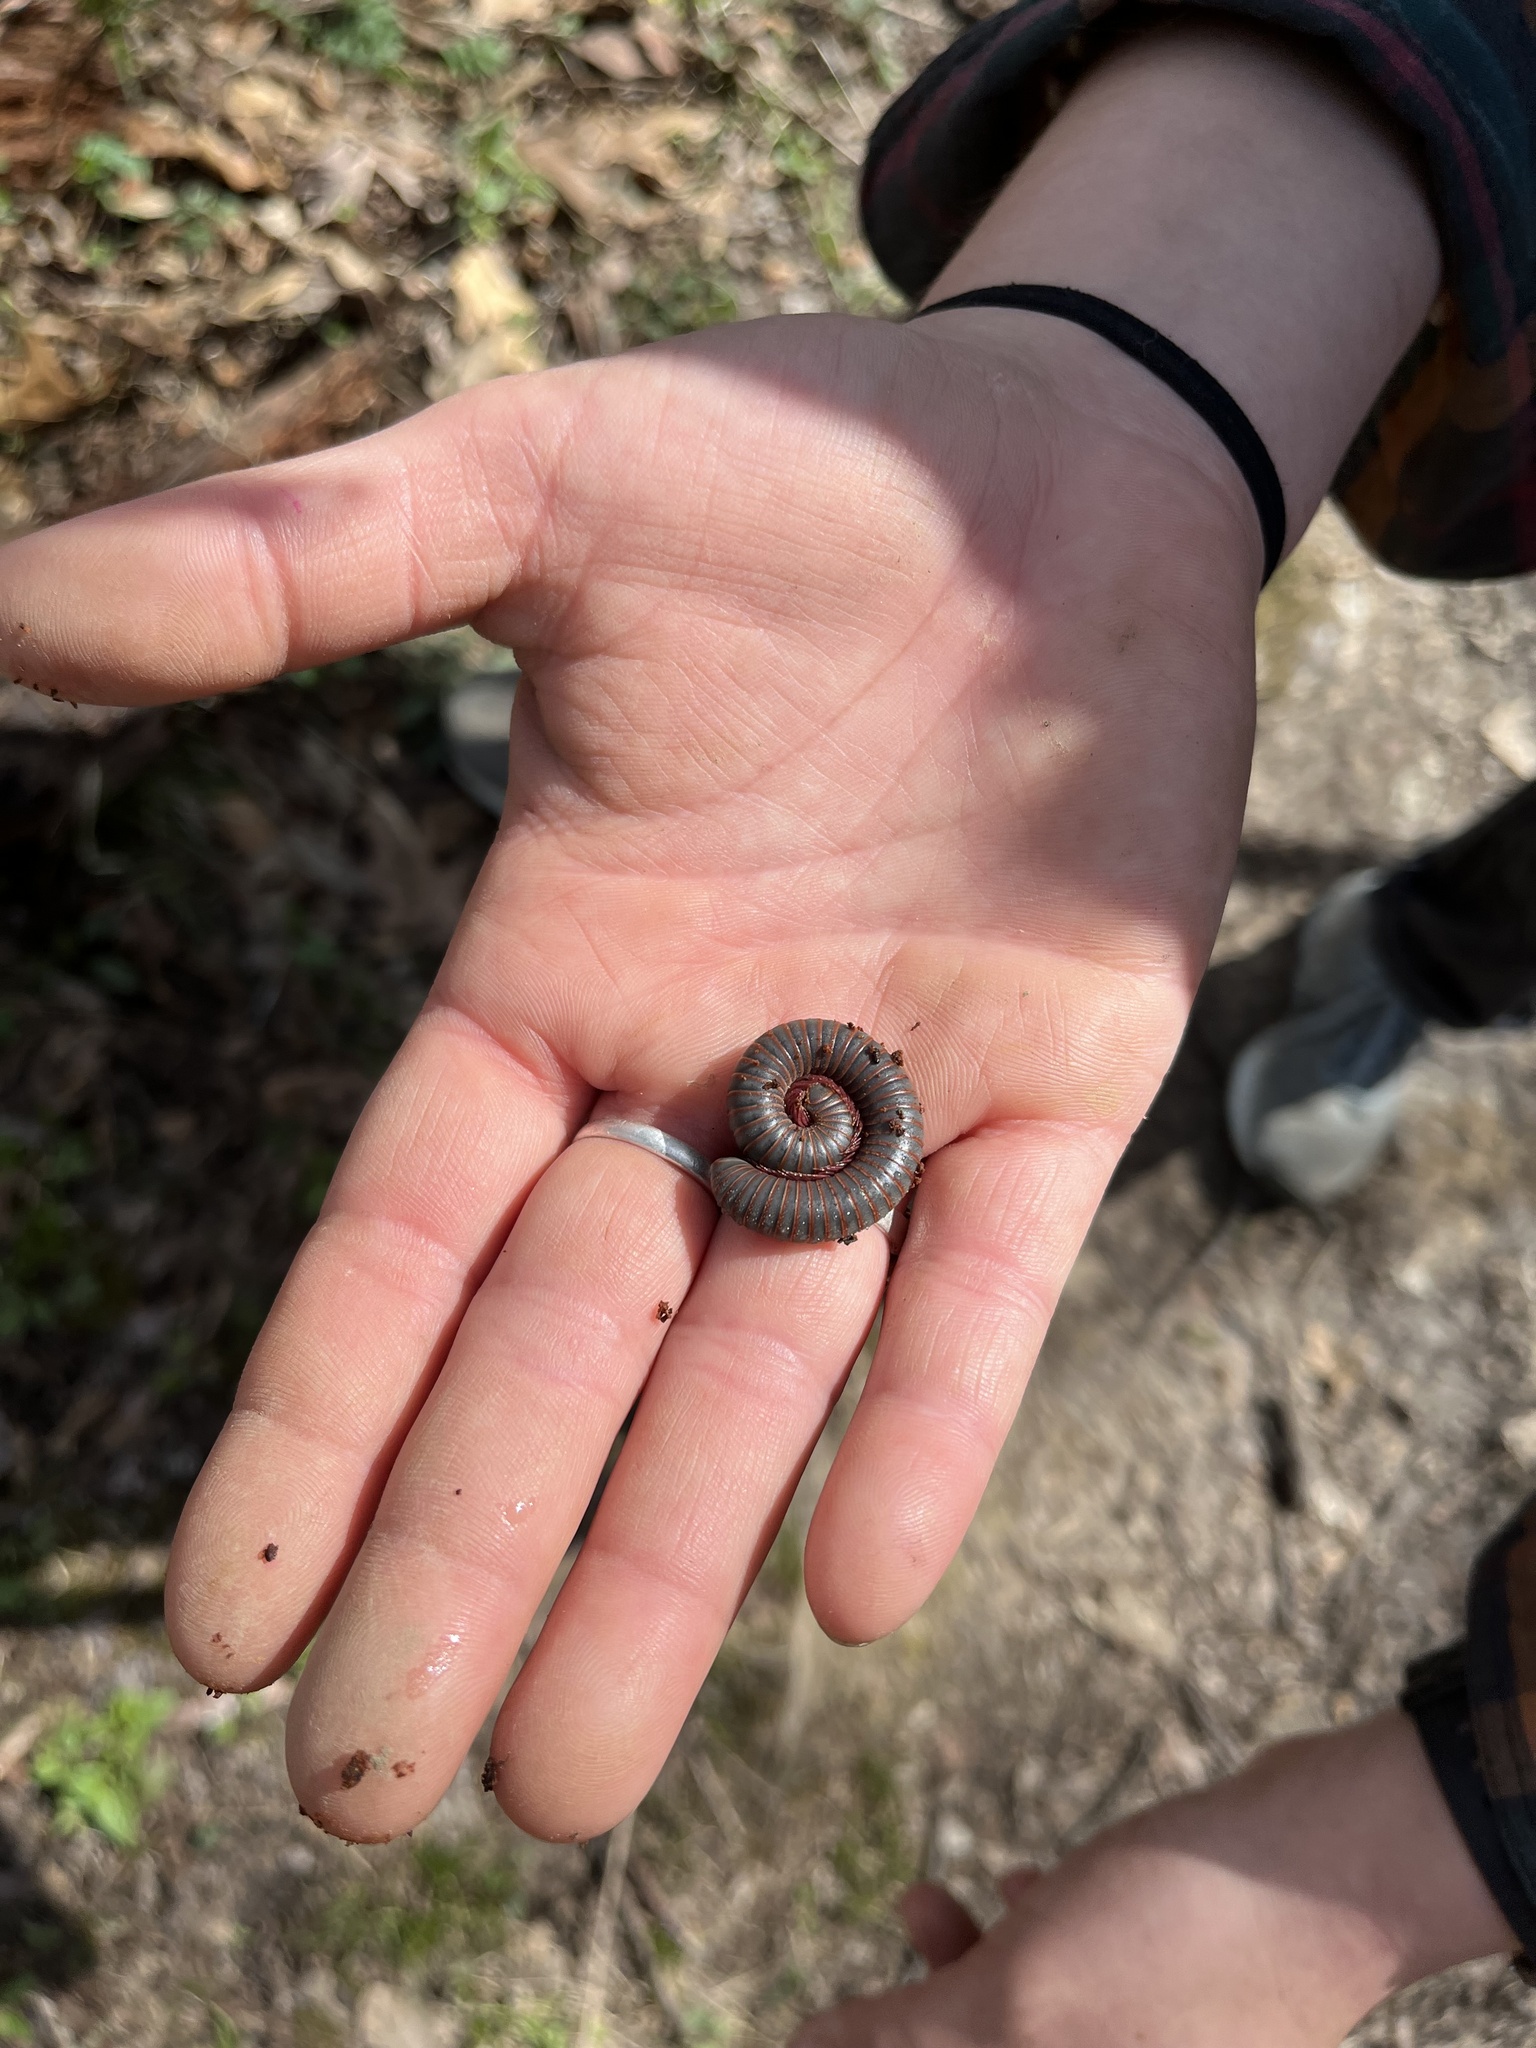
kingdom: Animalia
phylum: Arthropoda
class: Diplopoda
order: Spirobolida
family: Spirobolidae
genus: Narceus
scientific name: Narceus americanus
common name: American giant millipede
